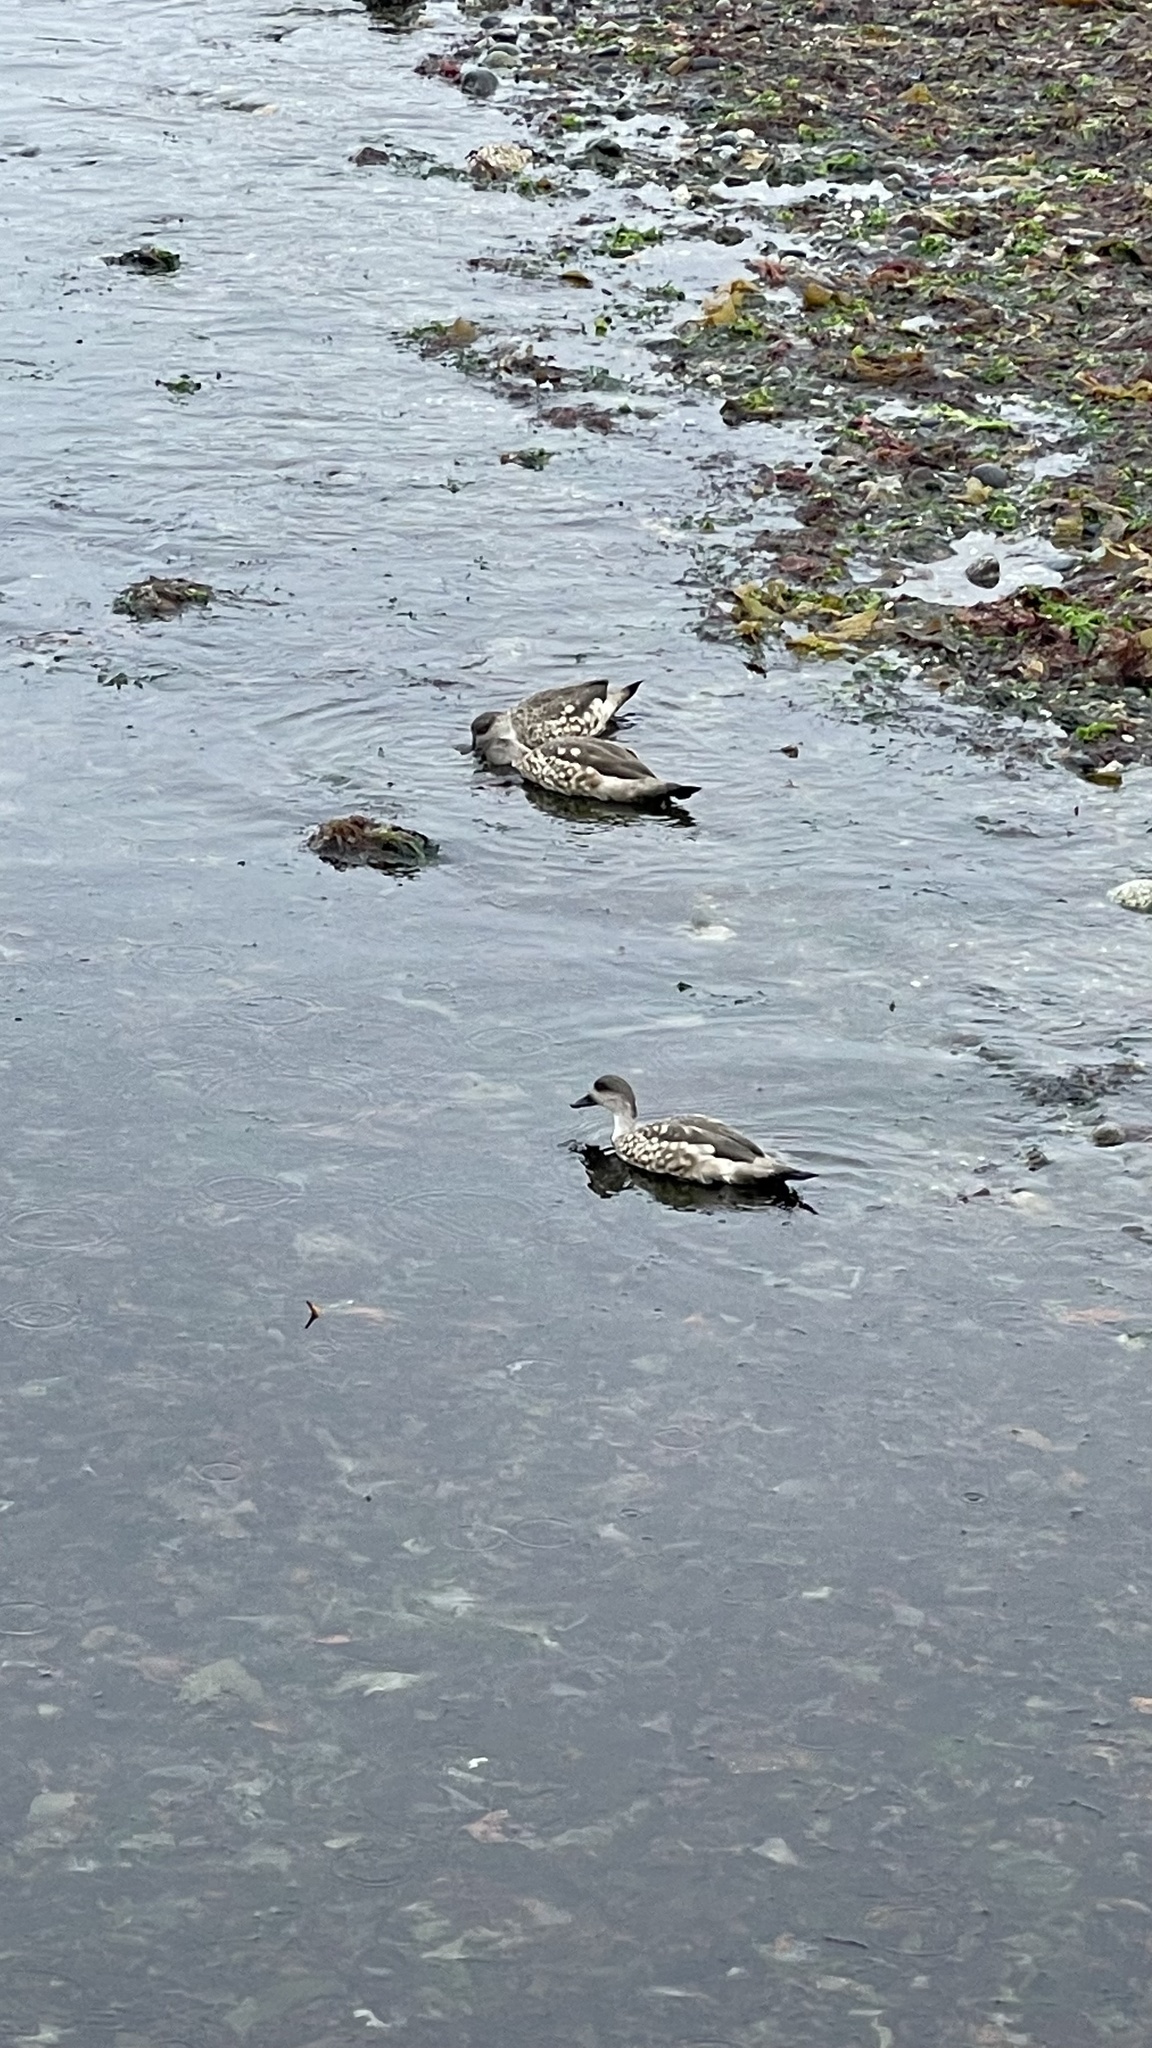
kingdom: Animalia
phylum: Chordata
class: Aves
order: Anseriformes
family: Anatidae
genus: Lophonetta
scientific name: Lophonetta specularioides
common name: Crested duck
